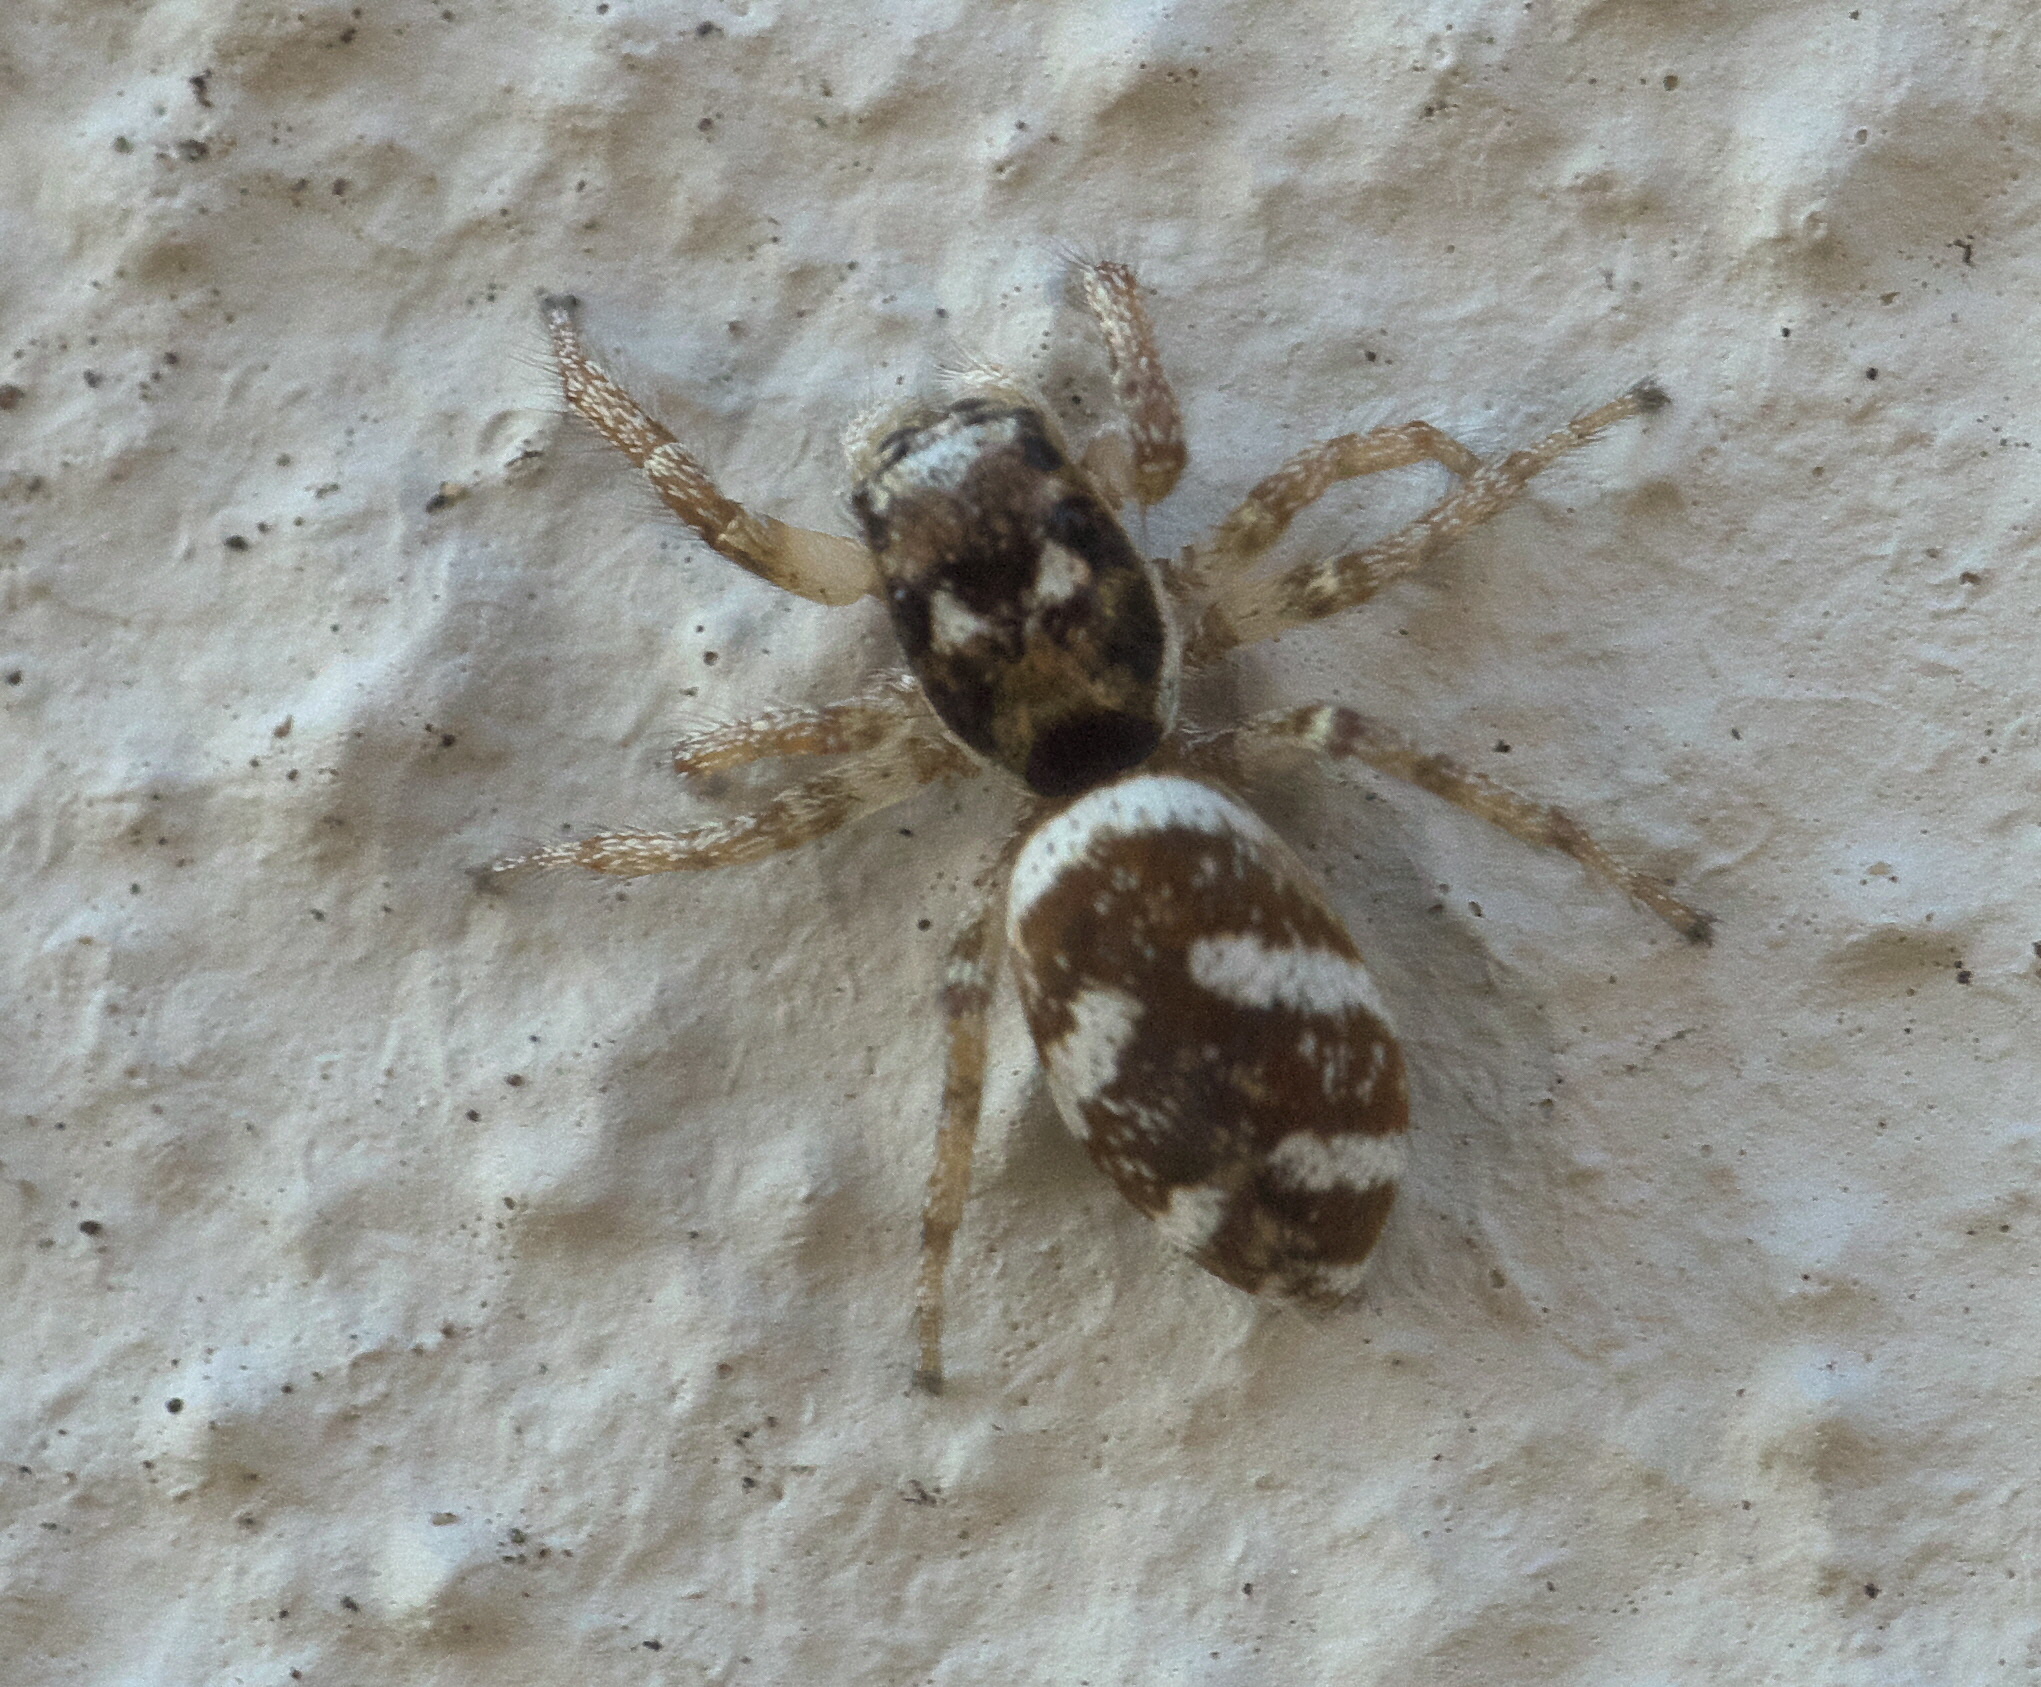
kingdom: Animalia
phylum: Arthropoda
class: Arachnida
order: Araneae
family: Salticidae
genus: Salticus
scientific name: Salticus scenicus
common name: Zebra jumper
